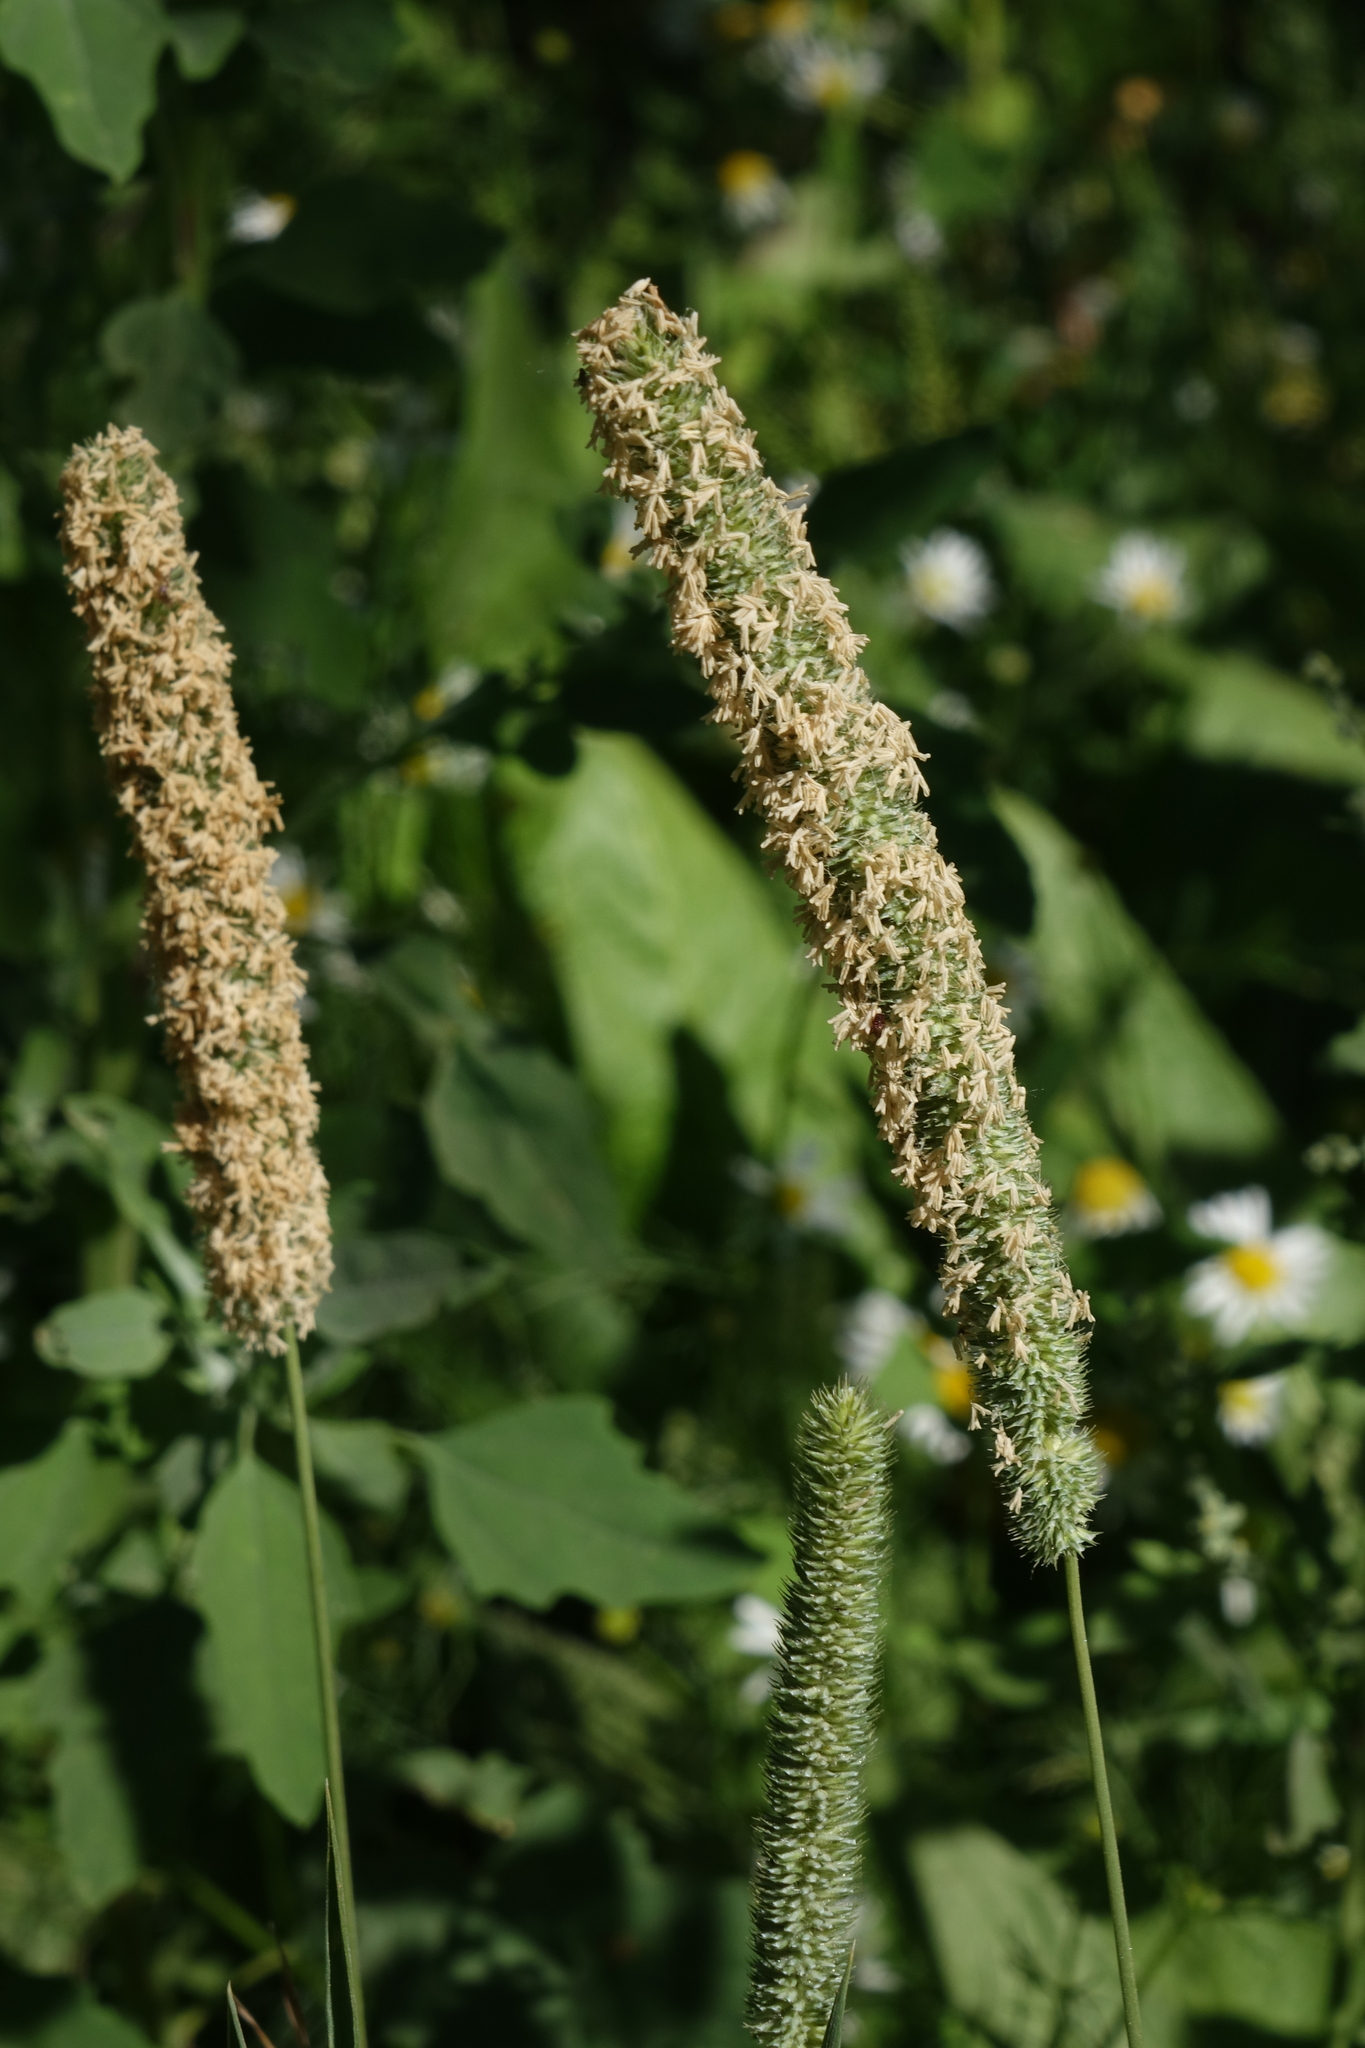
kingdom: Plantae
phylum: Tracheophyta
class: Liliopsida
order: Poales
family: Poaceae
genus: Phleum
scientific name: Phleum pratense
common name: Timothy grass
